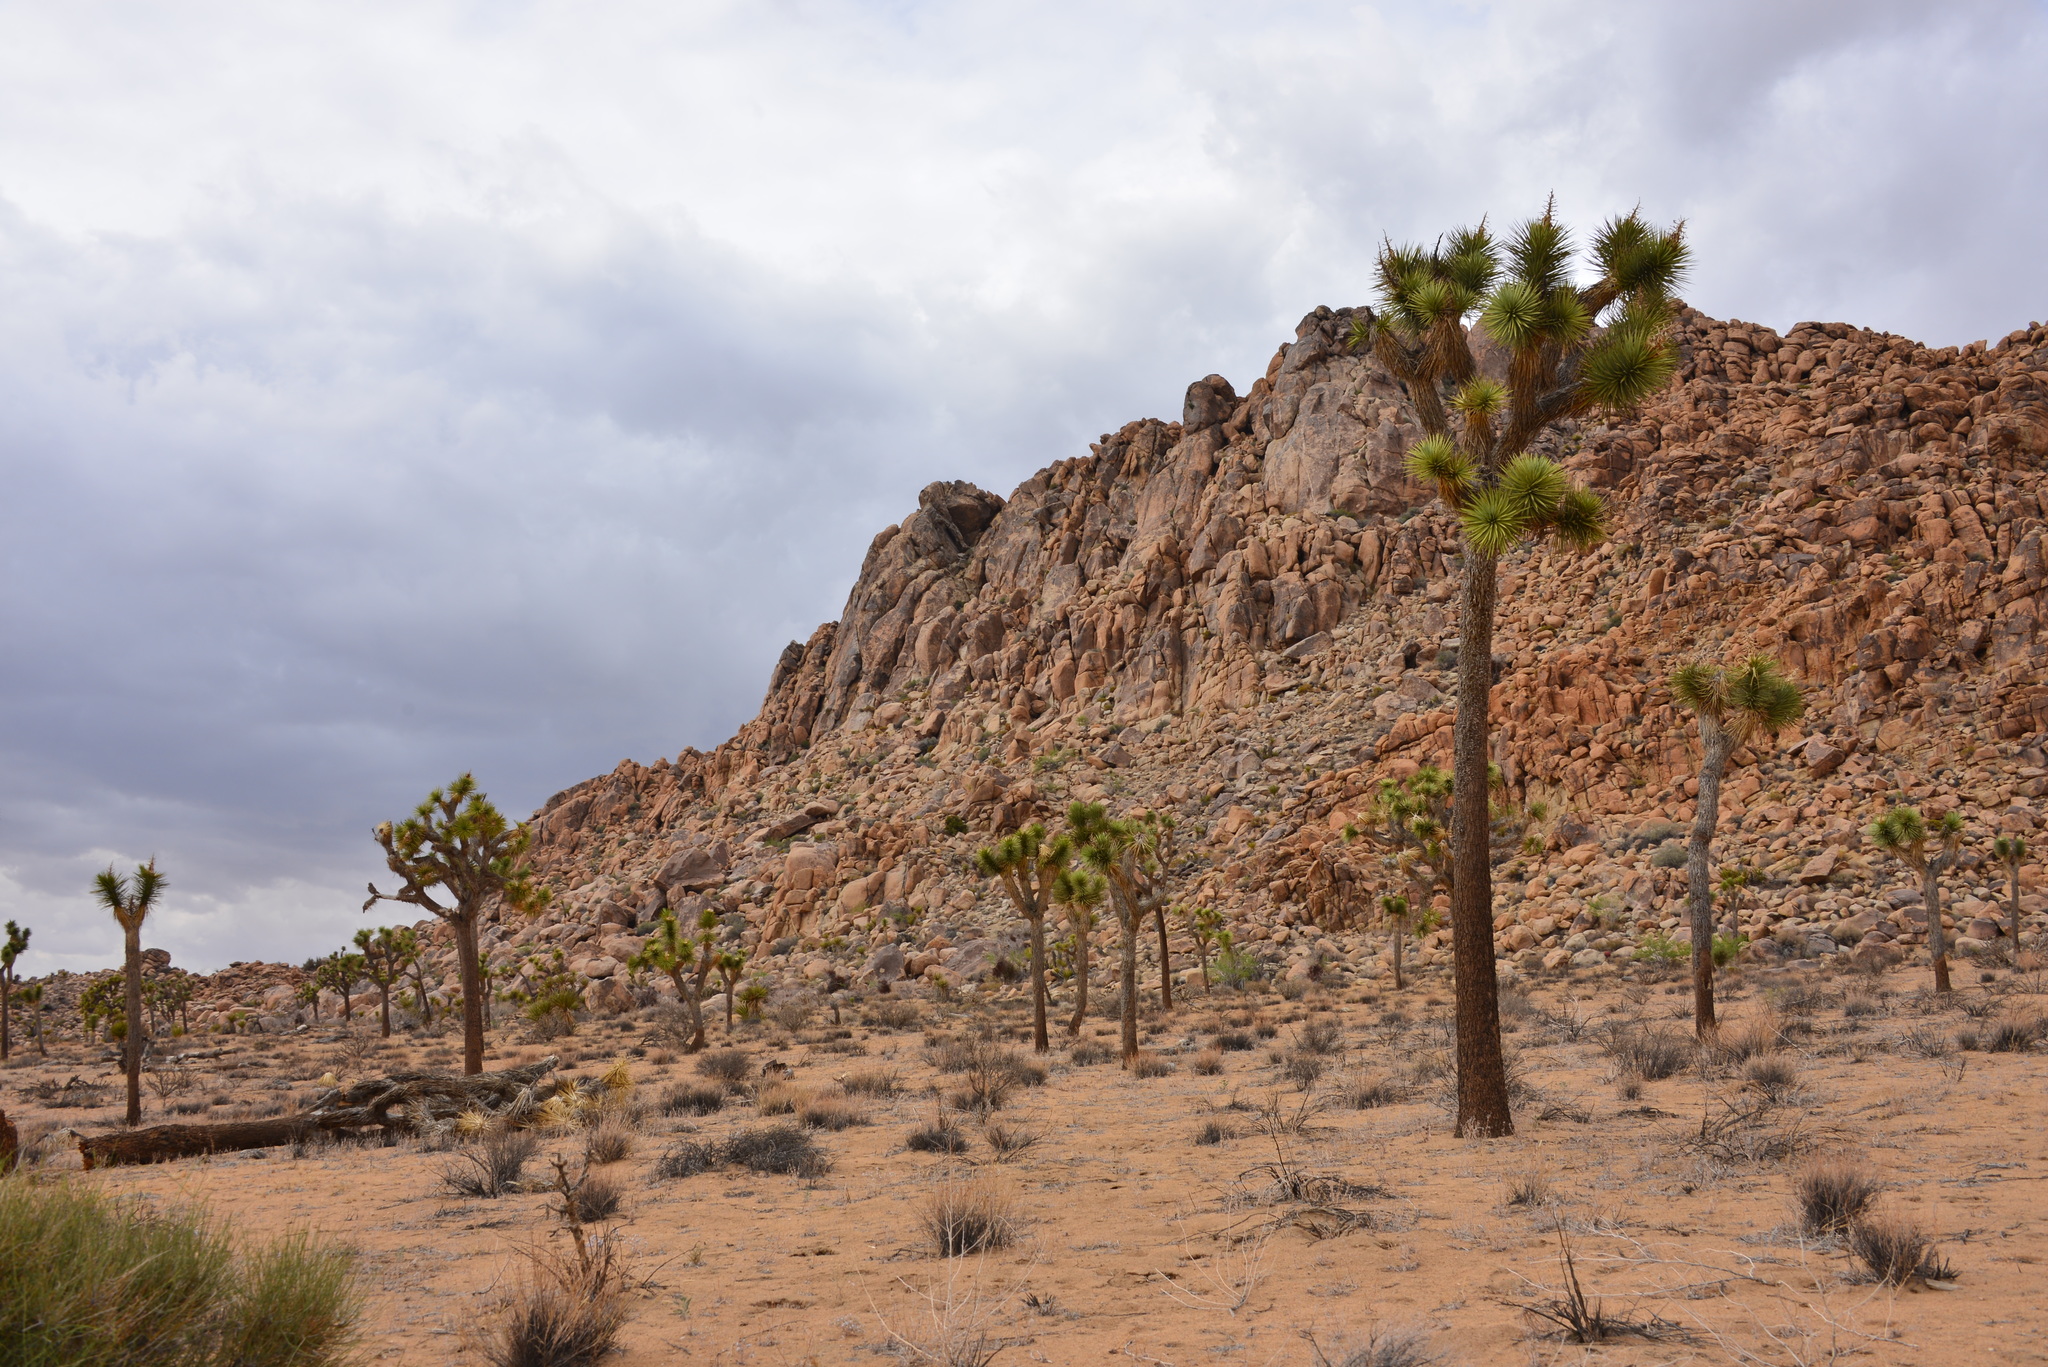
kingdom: Plantae
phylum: Tracheophyta
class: Liliopsida
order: Asparagales
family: Asparagaceae
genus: Yucca
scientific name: Yucca brevifolia
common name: Joshua tree
